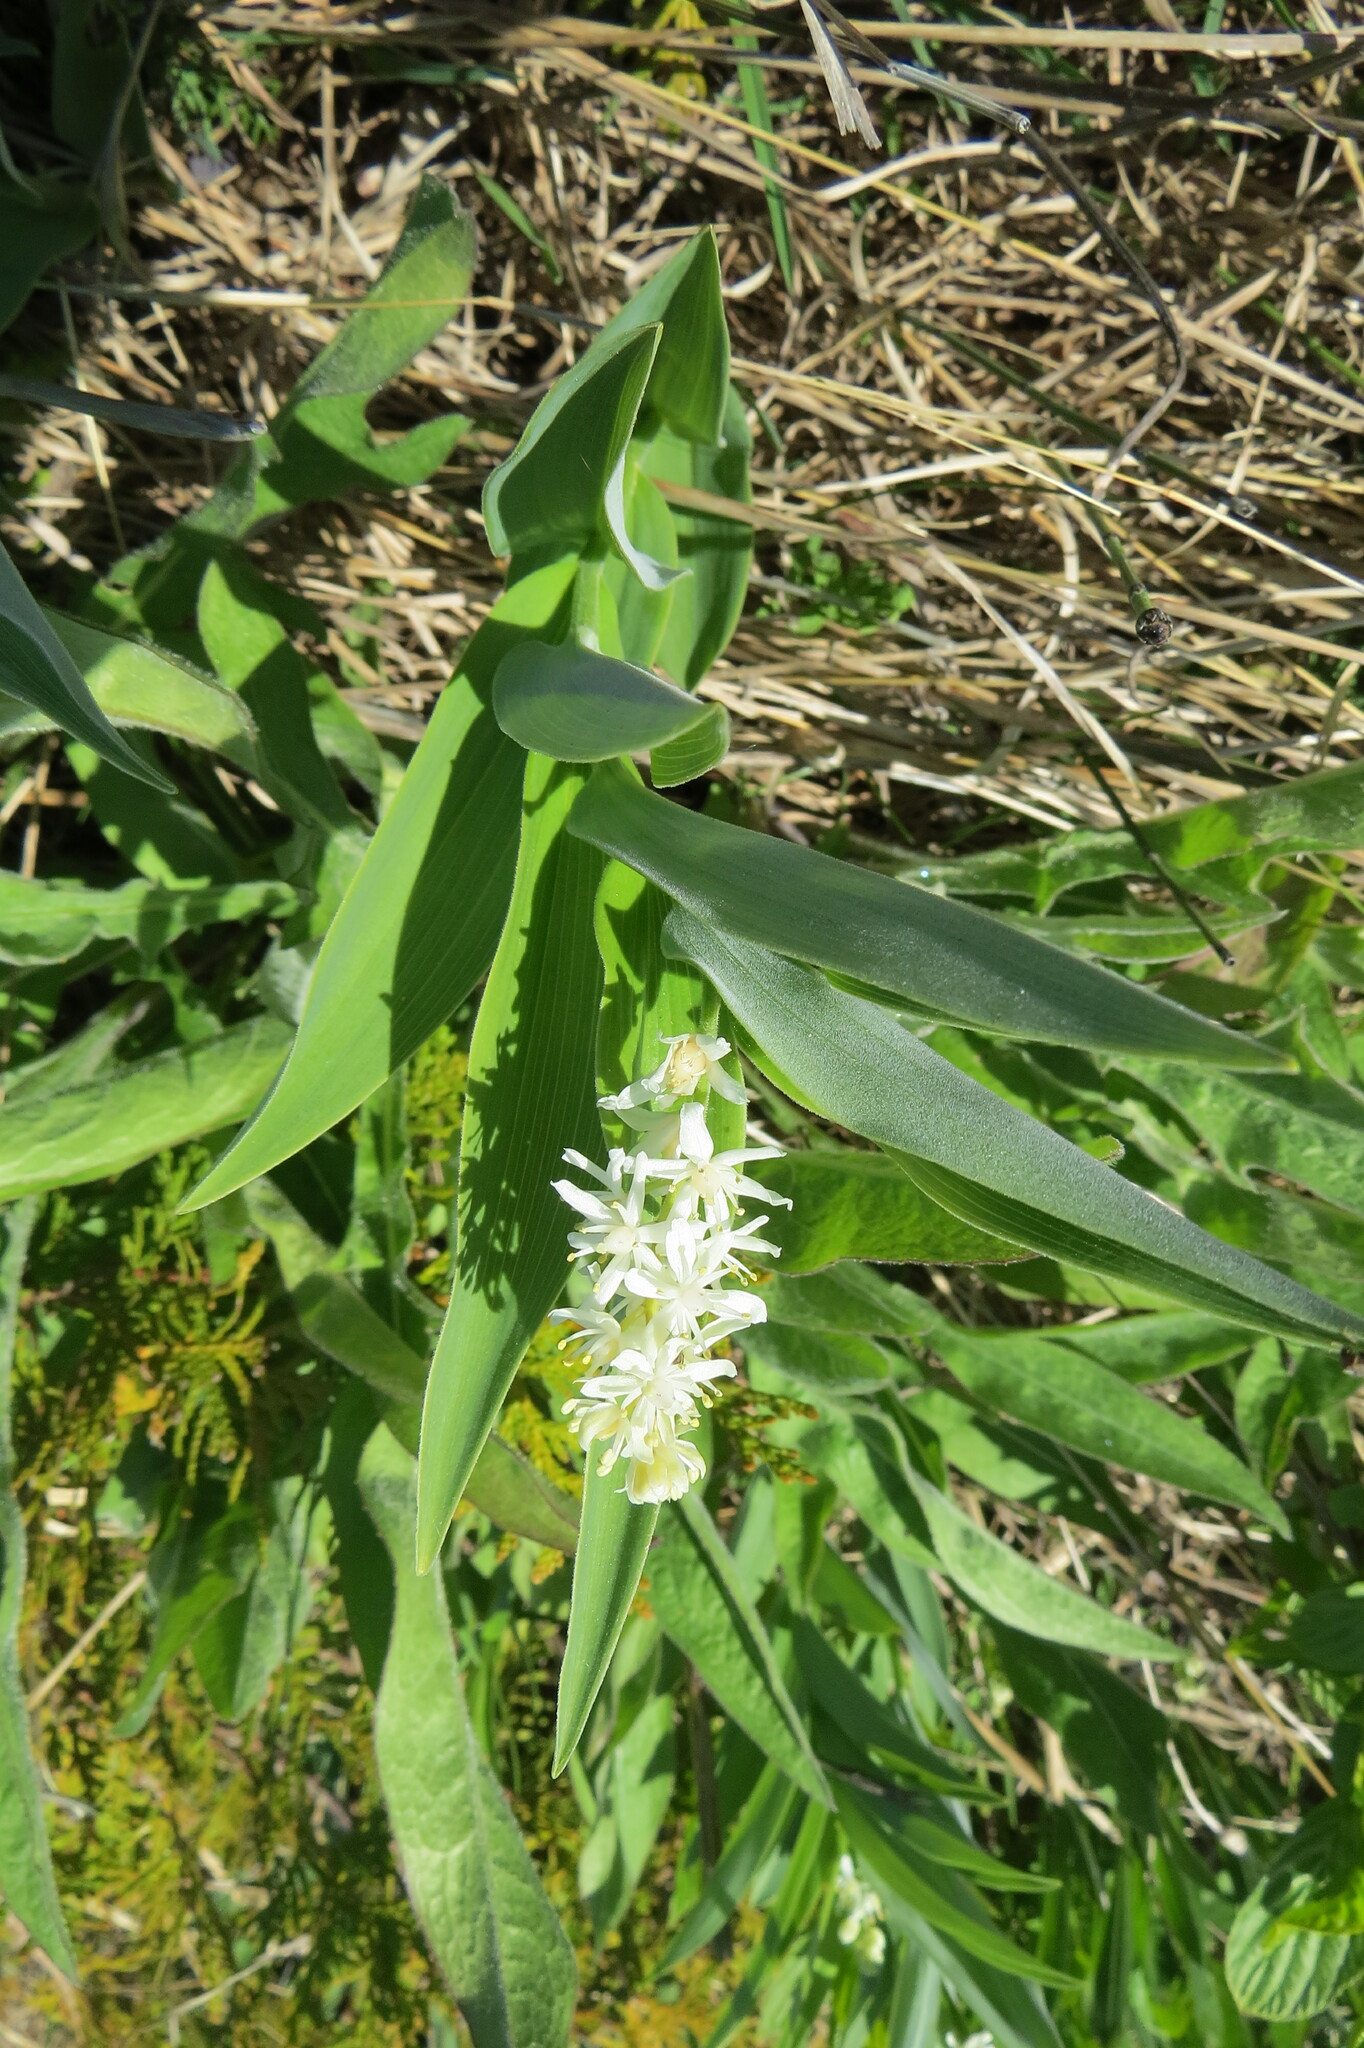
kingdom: Plantae
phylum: Tracheophyta
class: Liliopsida
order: Asparagales
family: Asparagaceae
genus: Maianthemum
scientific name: Maianthemum stellatum
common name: Little false solomon's seal
